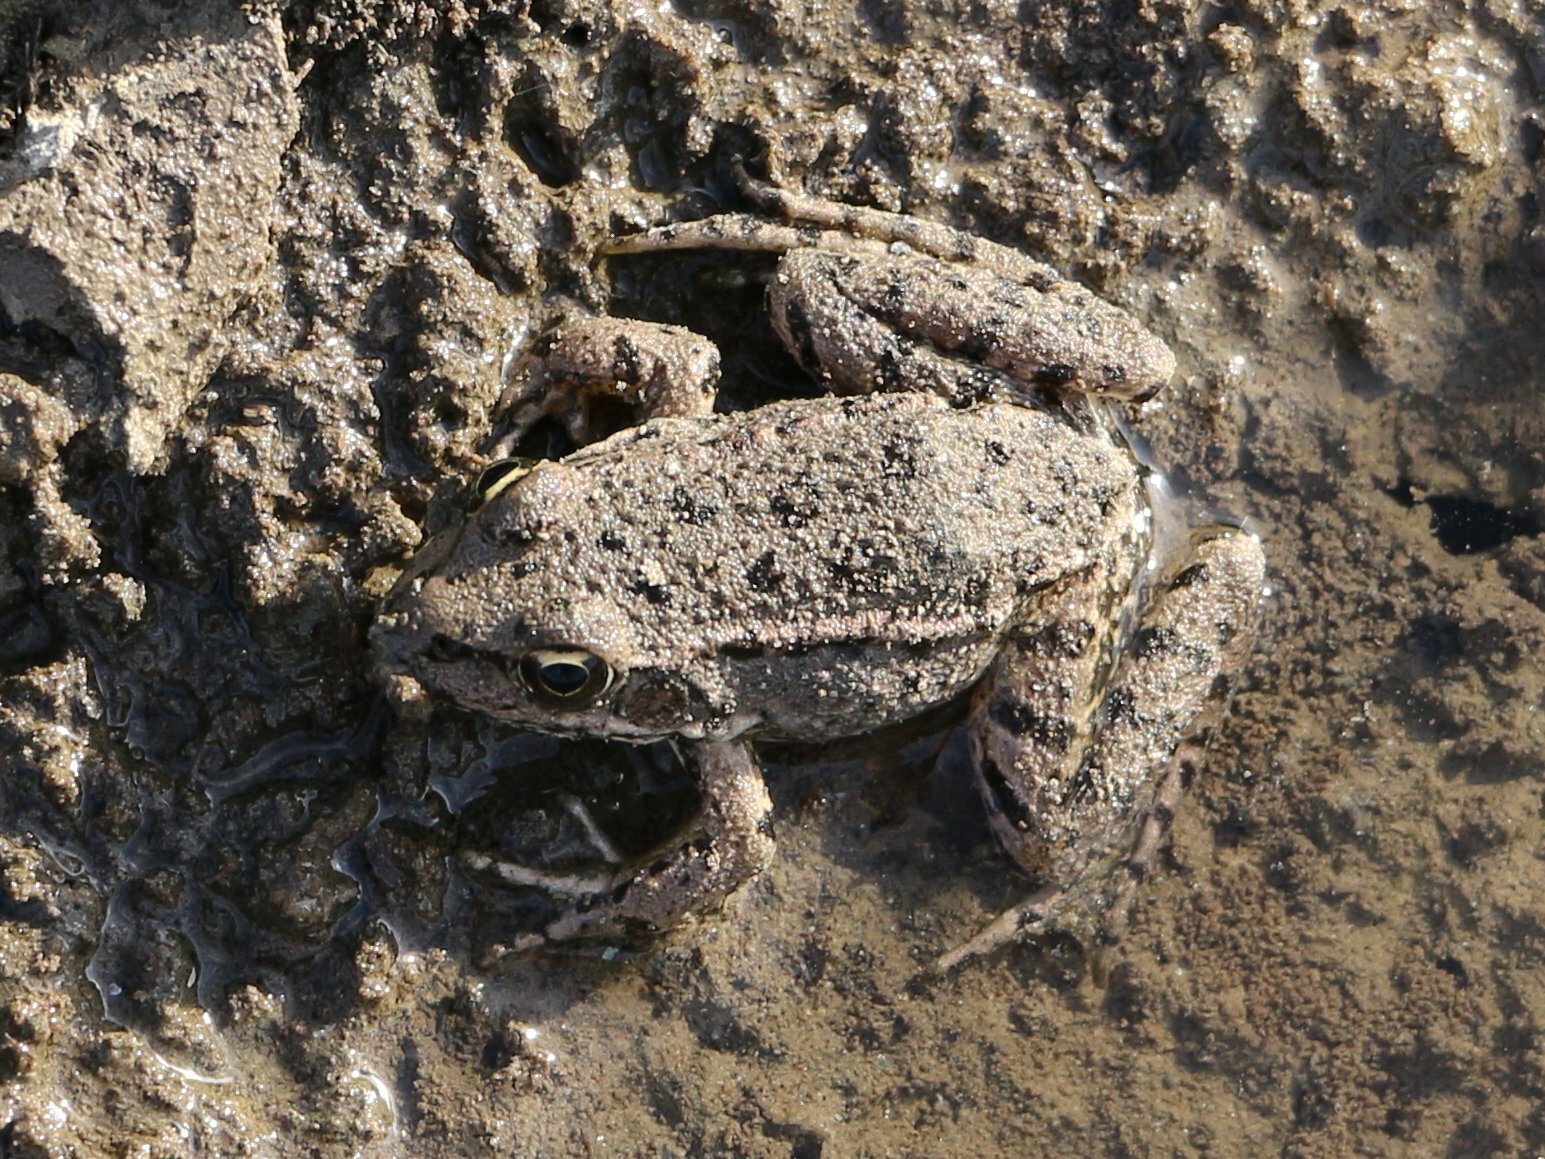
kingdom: Animalia
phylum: Chordata
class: Amphibia
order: Anura
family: Ranidae
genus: Pelophylax
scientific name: Pelophylax ridibundus
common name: Marsh frog
